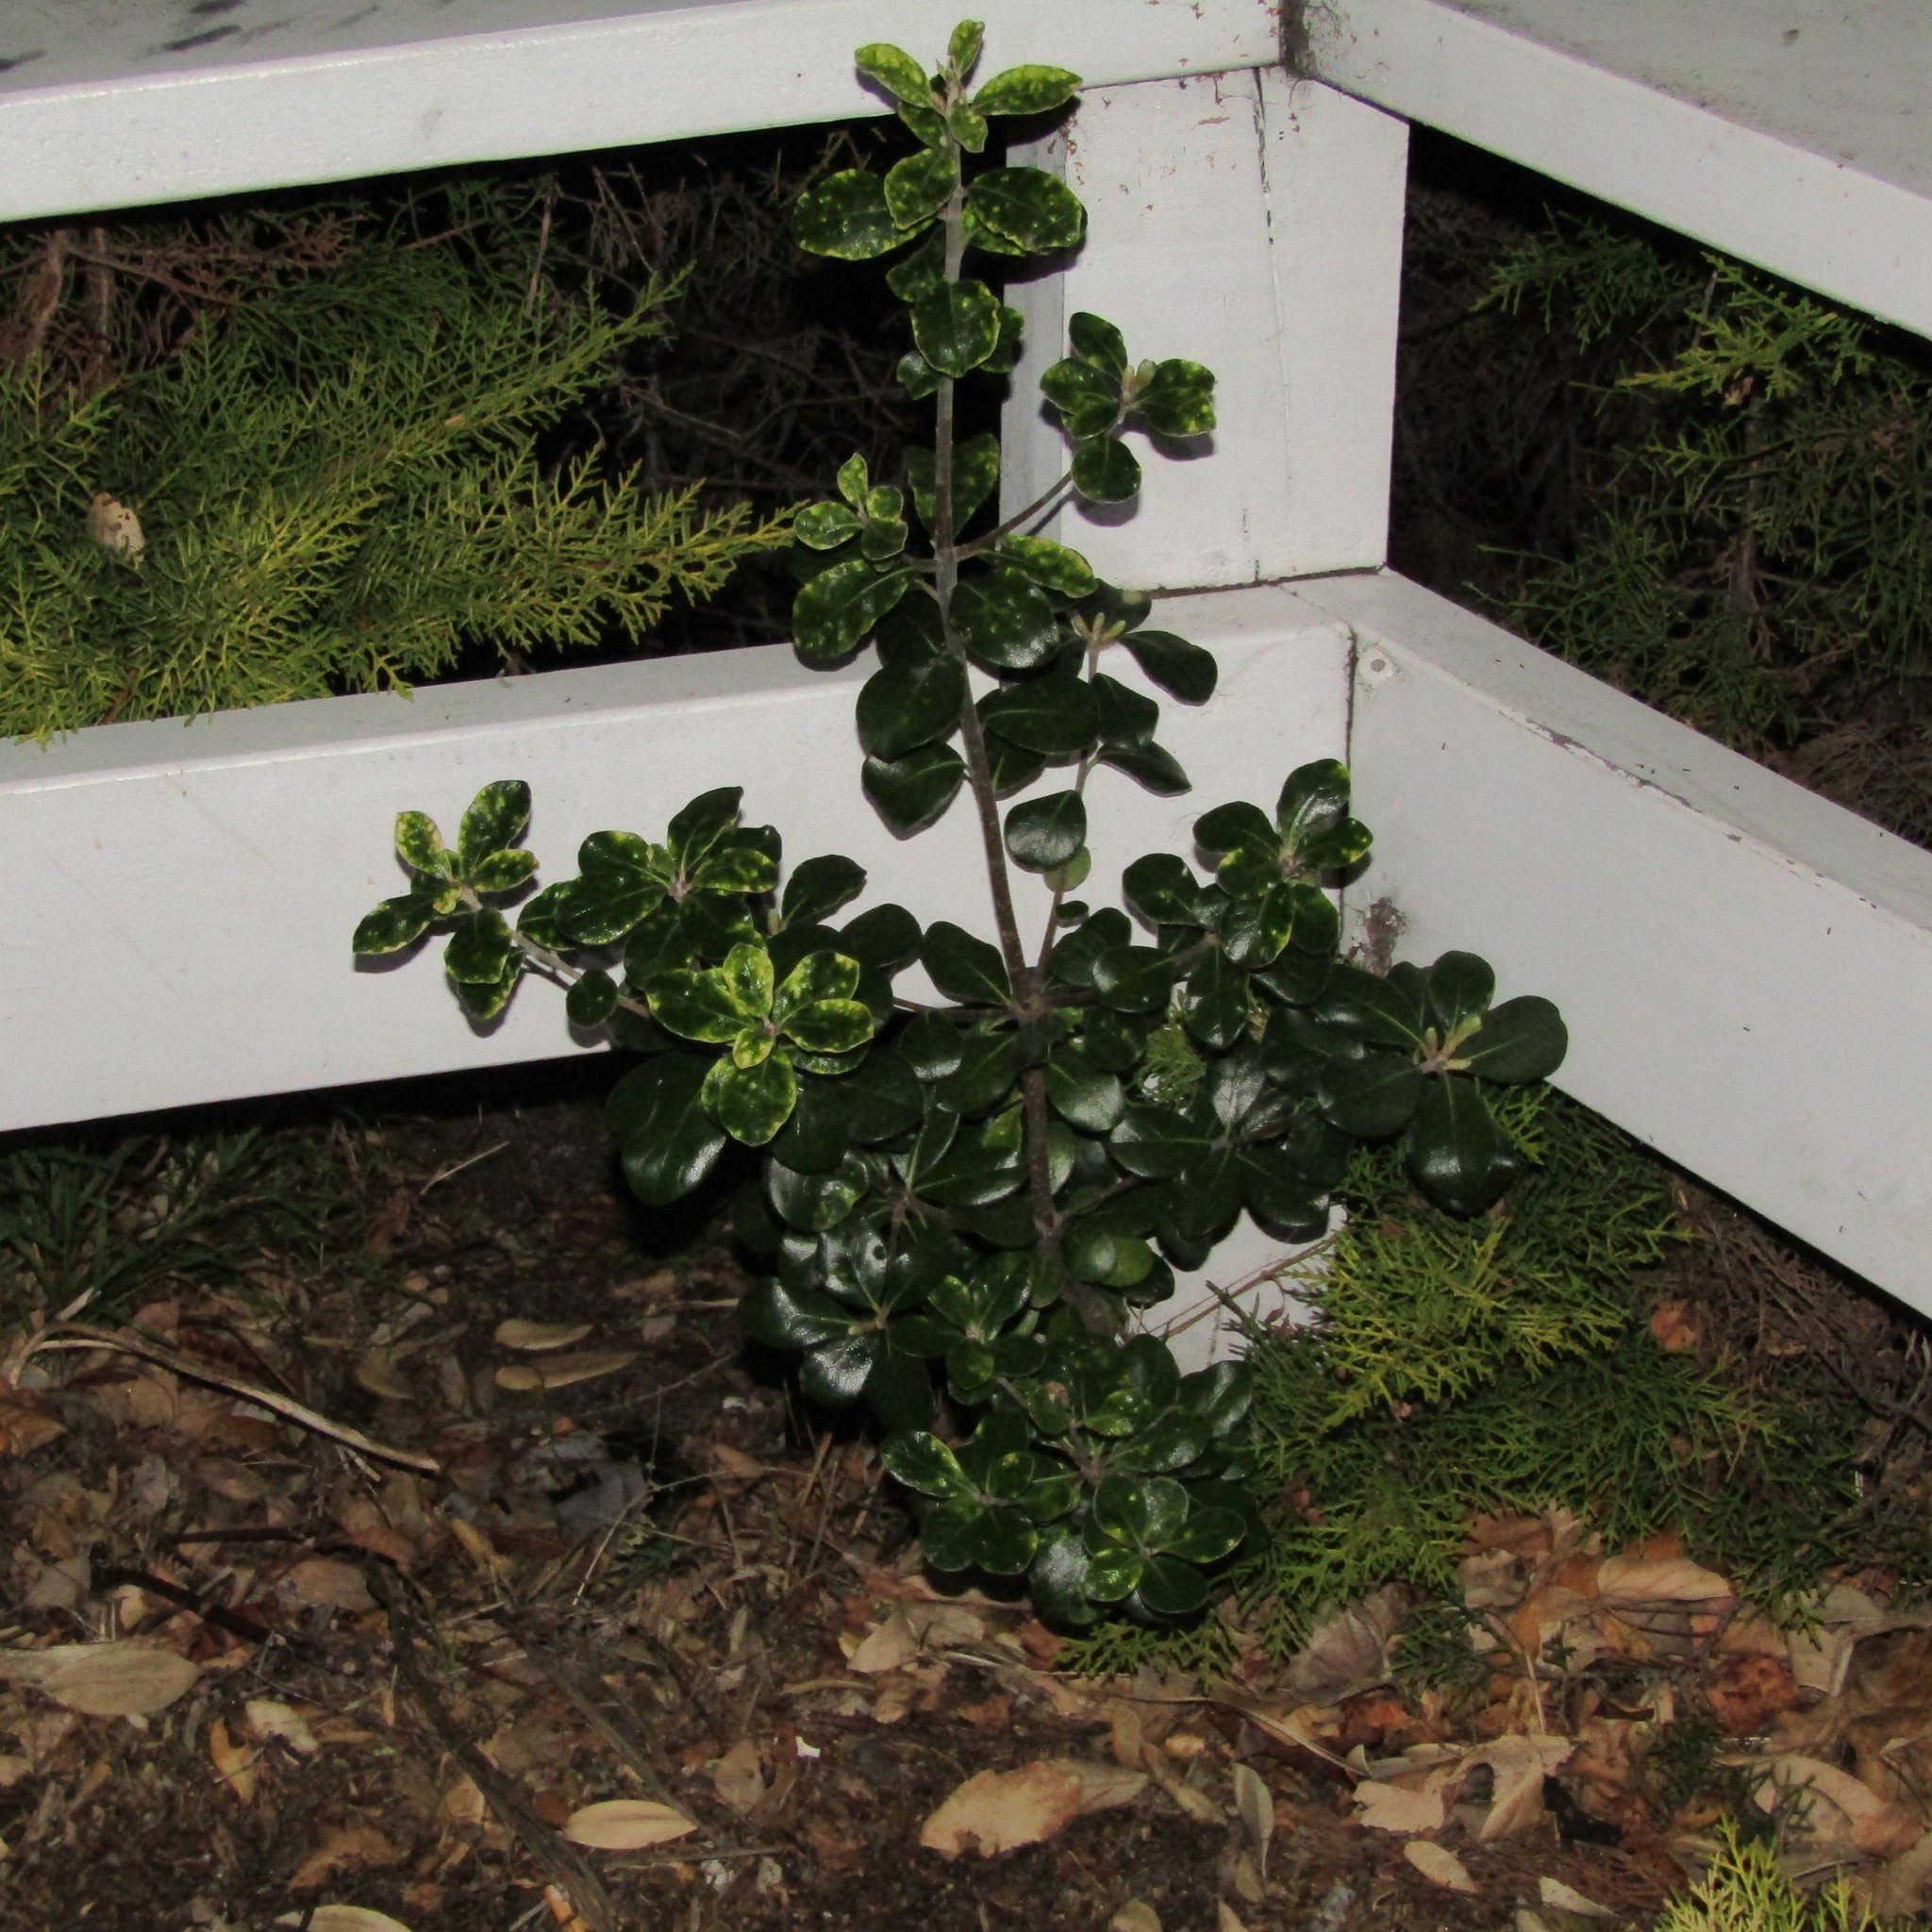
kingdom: Plantae
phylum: Tracheophyta
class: Magnoliopsida
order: Apiales
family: Pittosporaceae
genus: Pittosporum
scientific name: Pittosporum crassifolium
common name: Karo
